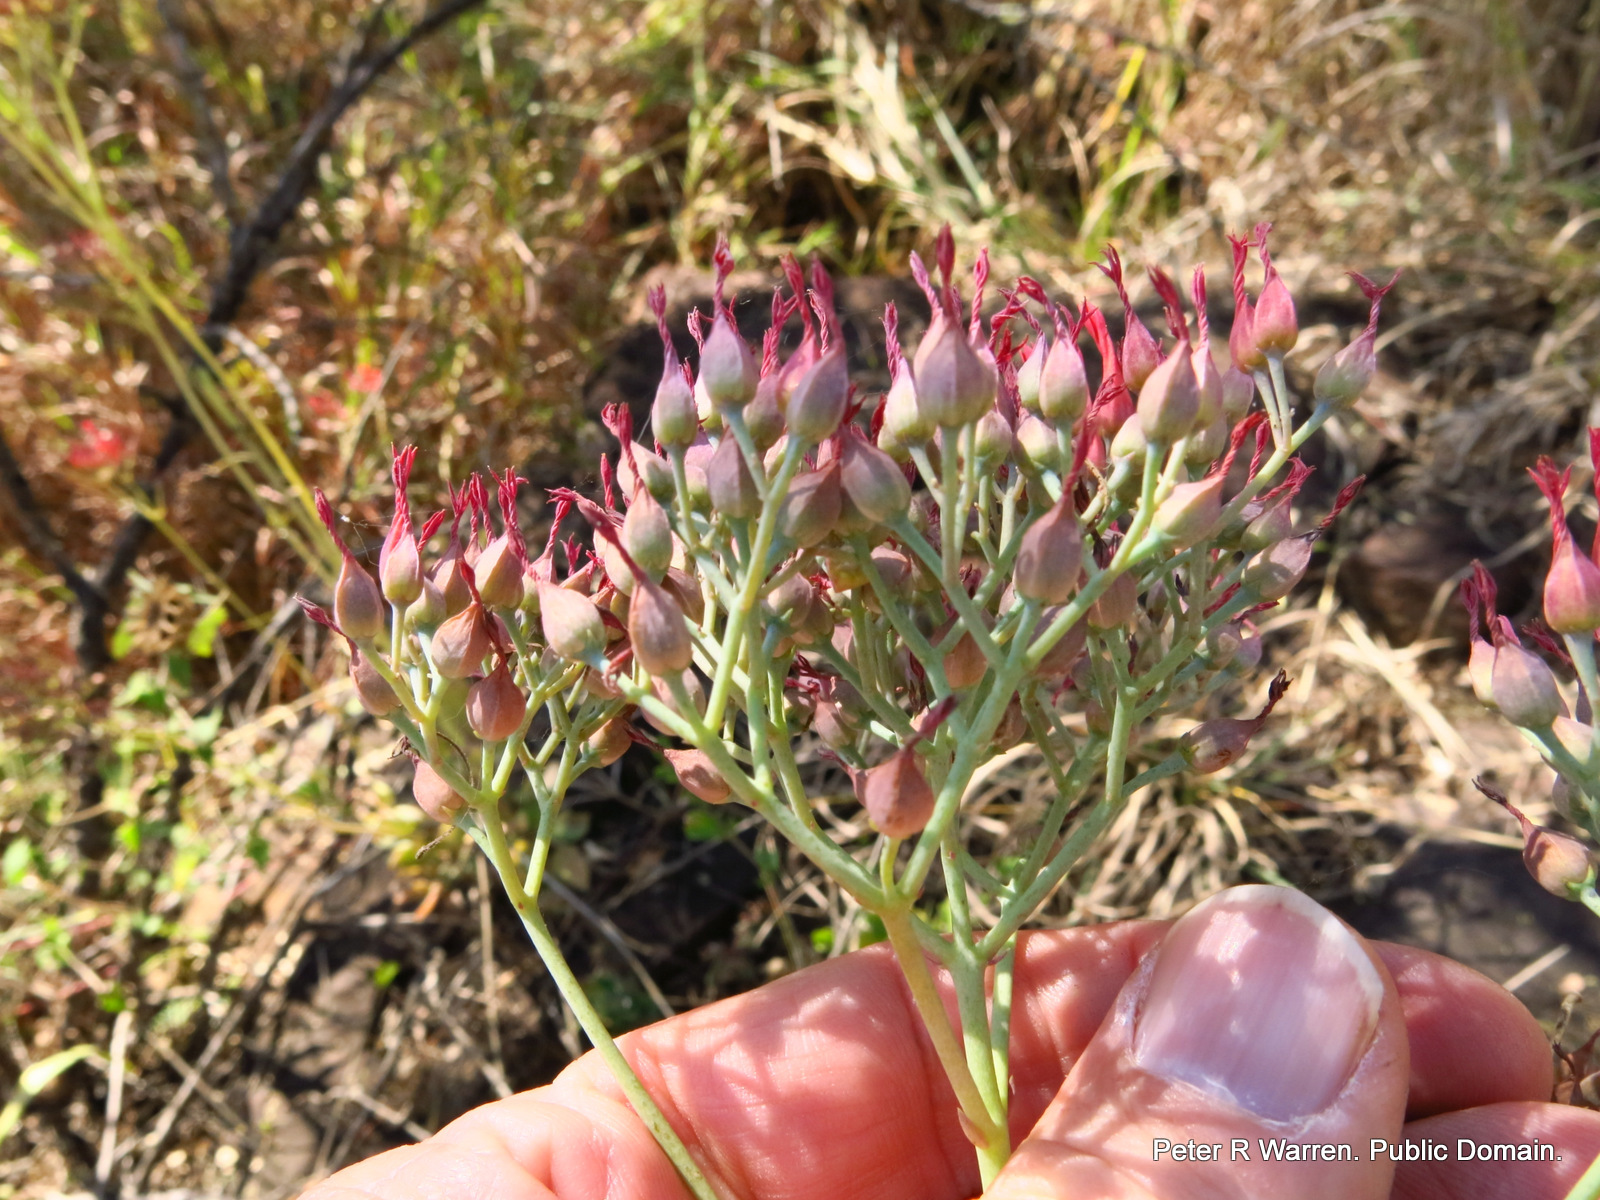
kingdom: Plantae
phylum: Tracheophyta
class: Magnoliopsida
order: Saxifragales
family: Crassulaceae
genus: Kalanchoe
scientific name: Kalanchoe rotundifolia
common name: Common kalanchoe
